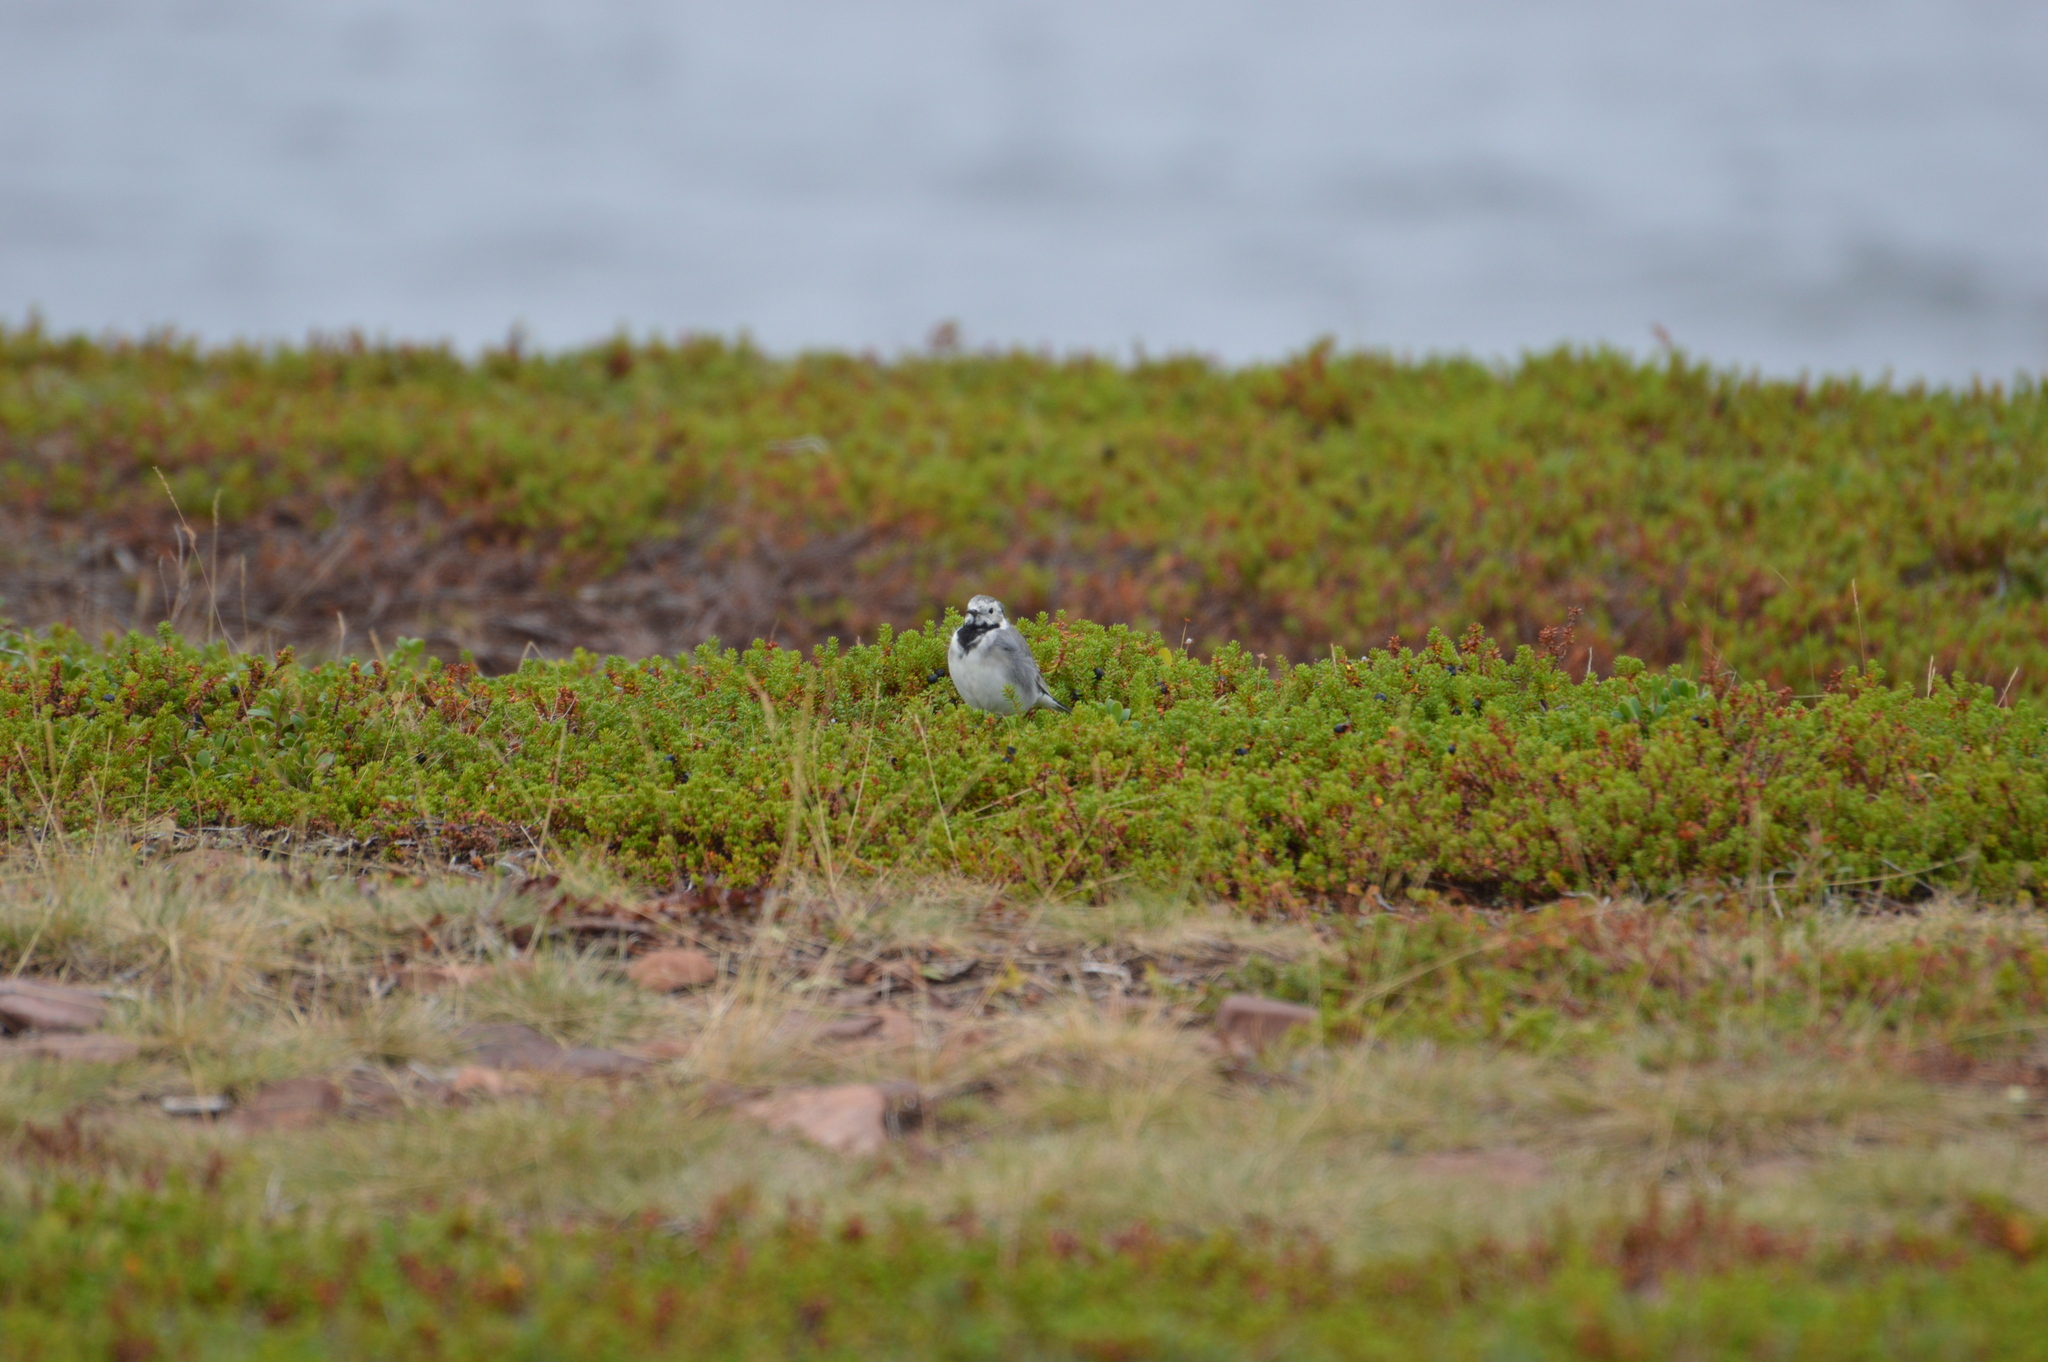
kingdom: Animalia
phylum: Chordata
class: Aves
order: Passeriformes
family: Motacillidae
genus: Motacilla
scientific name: Motacilla alba
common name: White wagtail
